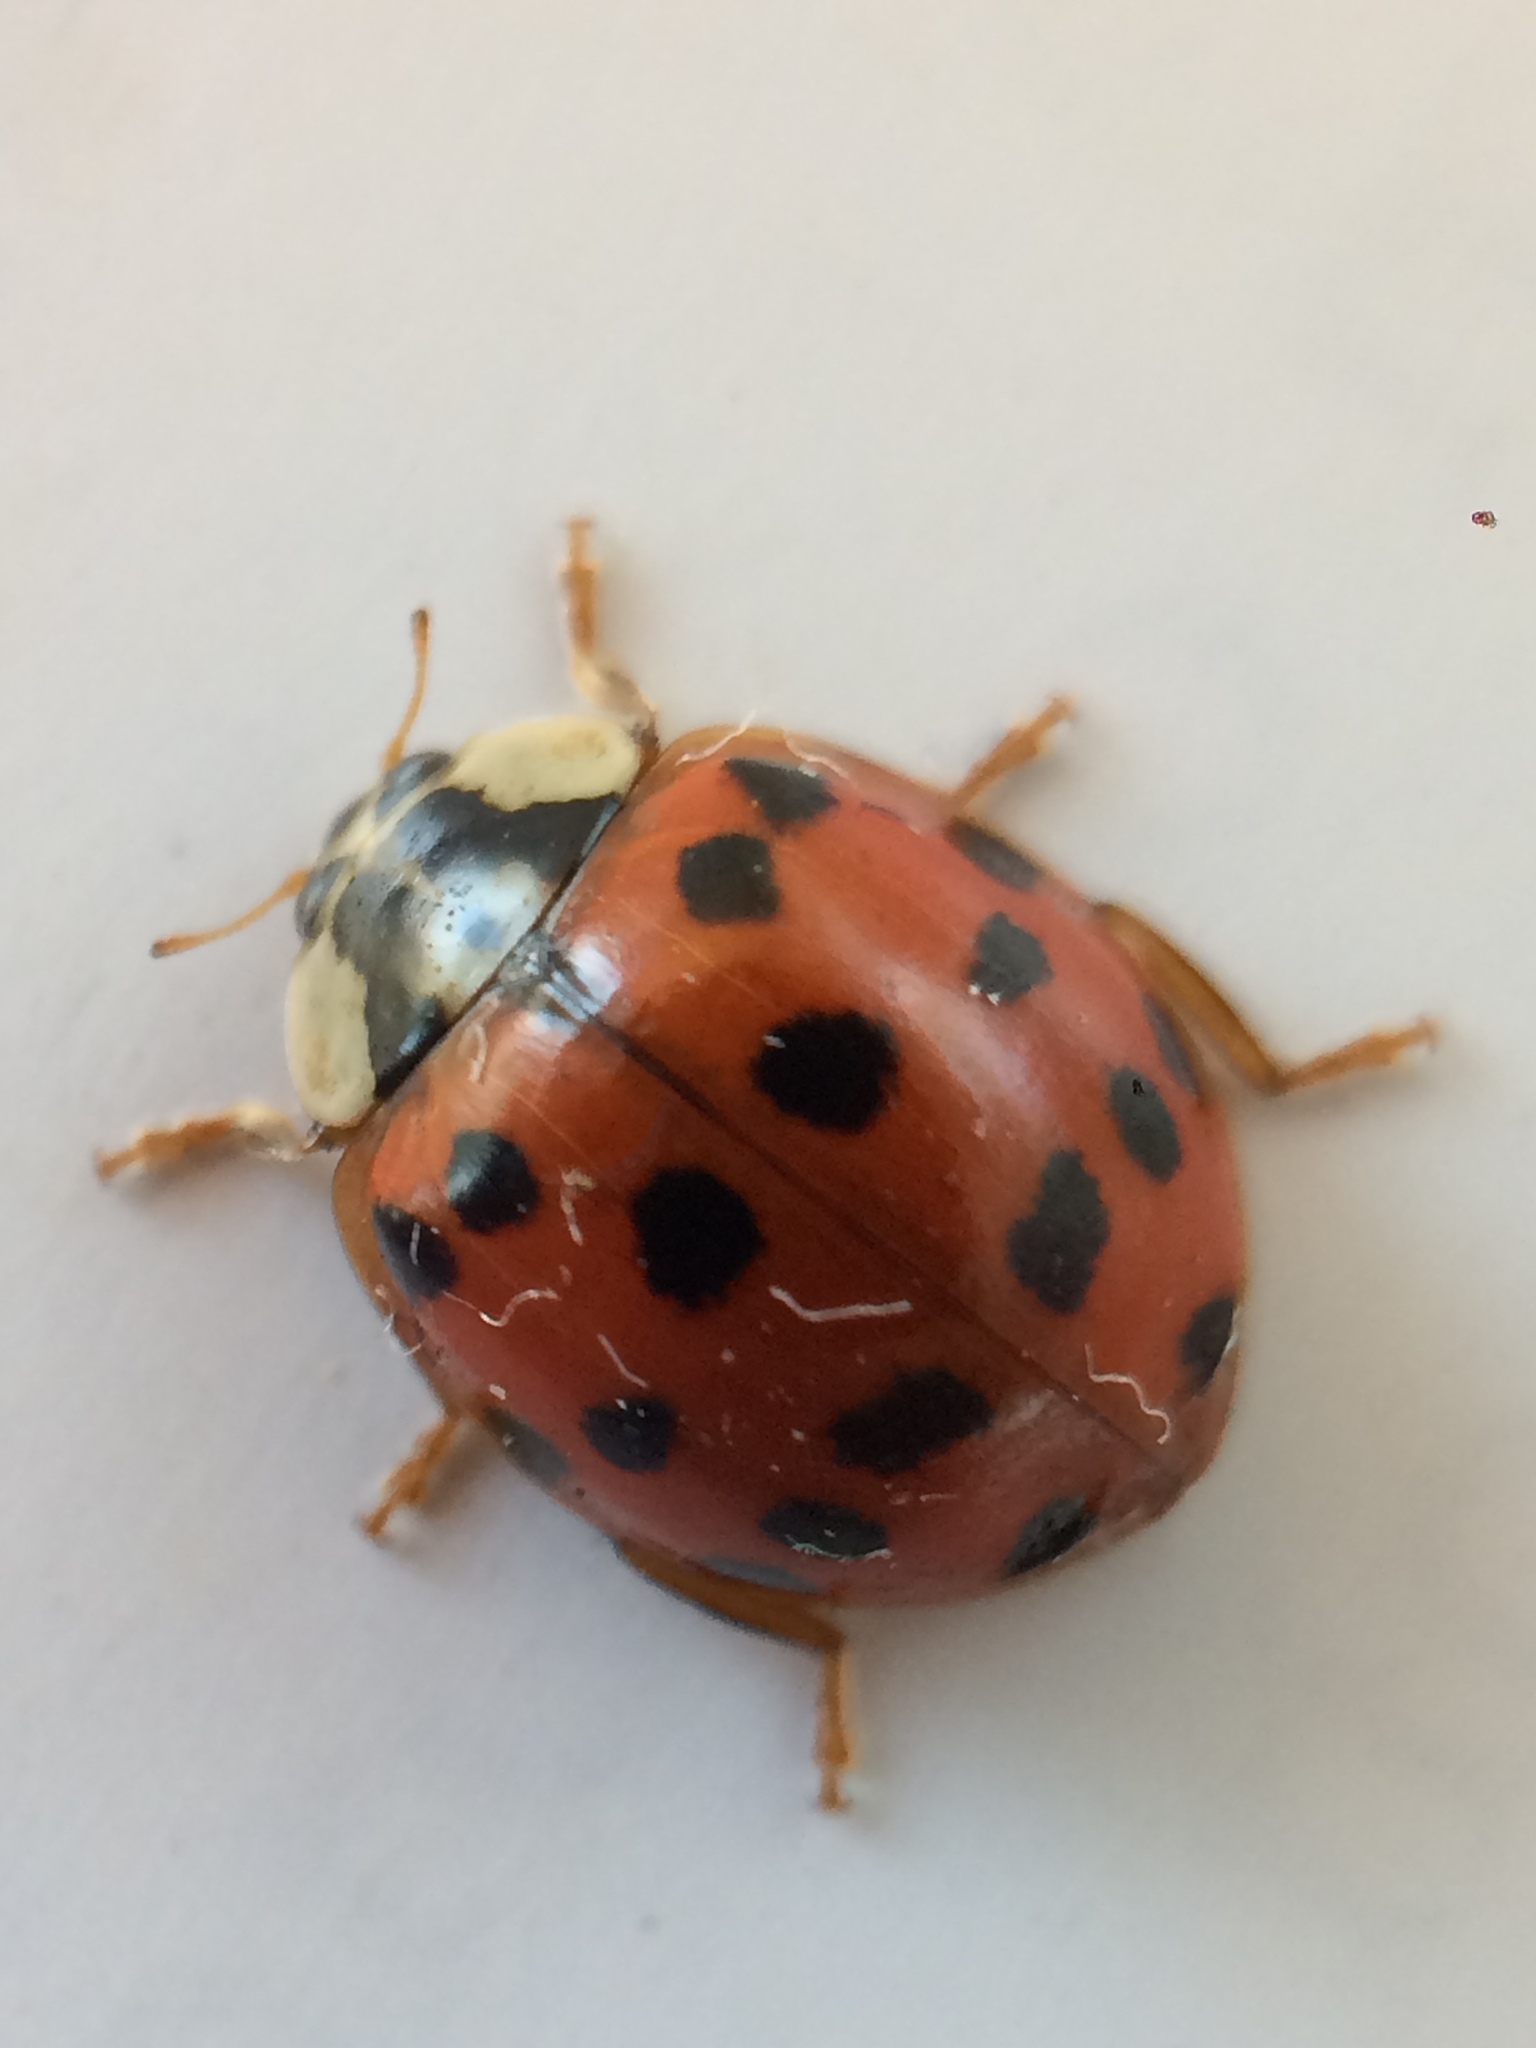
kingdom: Animalia
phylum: Arthropoda
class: Insecta
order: Coleoptera
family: Coccinellidae
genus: Harmonia
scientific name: Harmonia axyridis
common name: Harlequin ladybird
